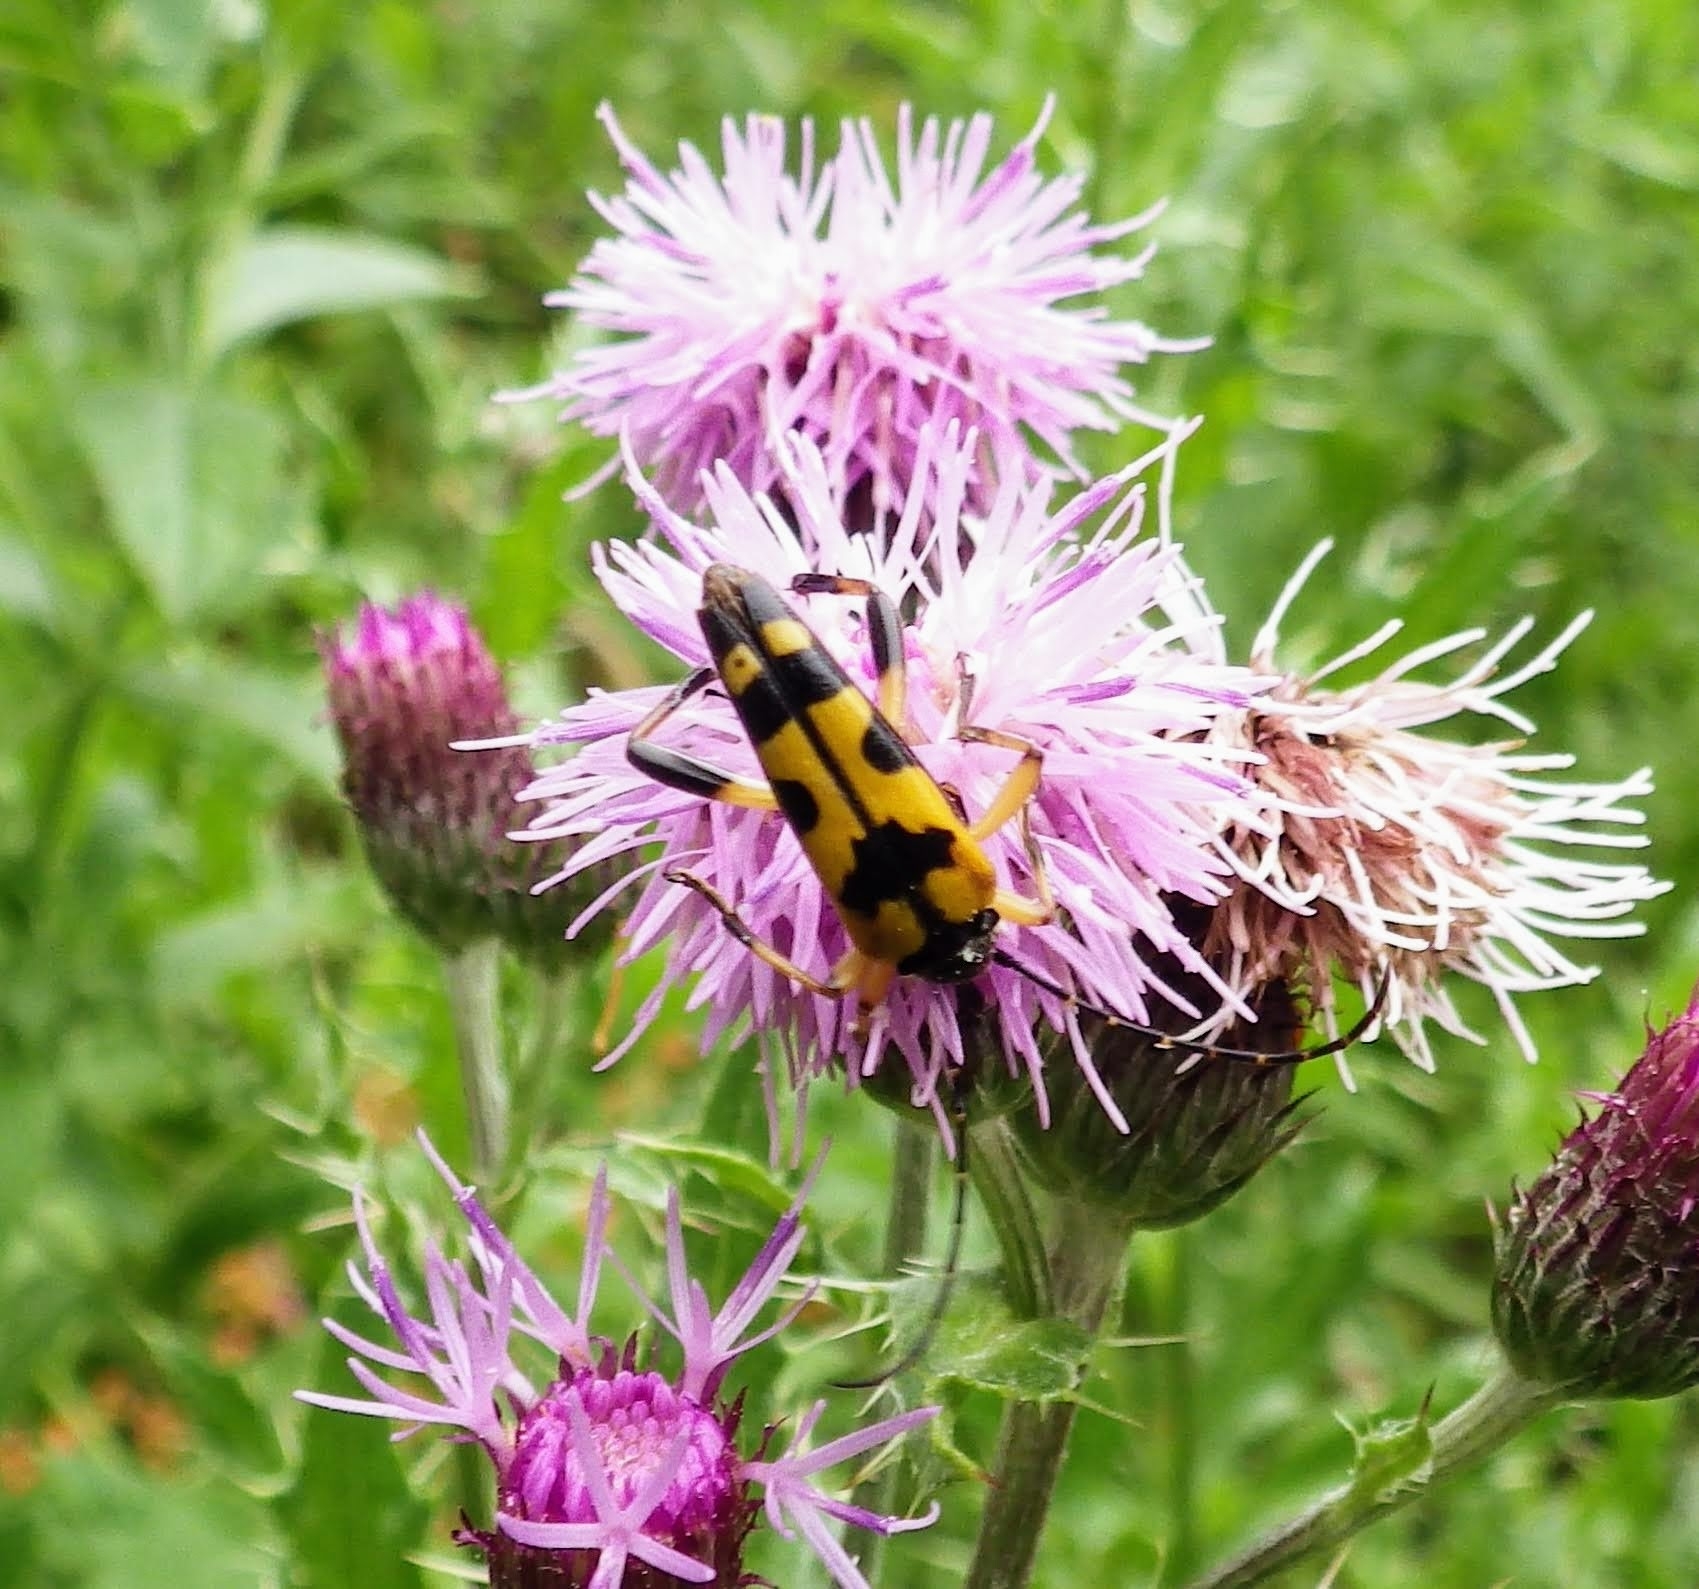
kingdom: Animalia
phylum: Arthropoda
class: Insecta
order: Coleoptera
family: Cerambycidae
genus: Rutpela
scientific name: Rutpela maculata
